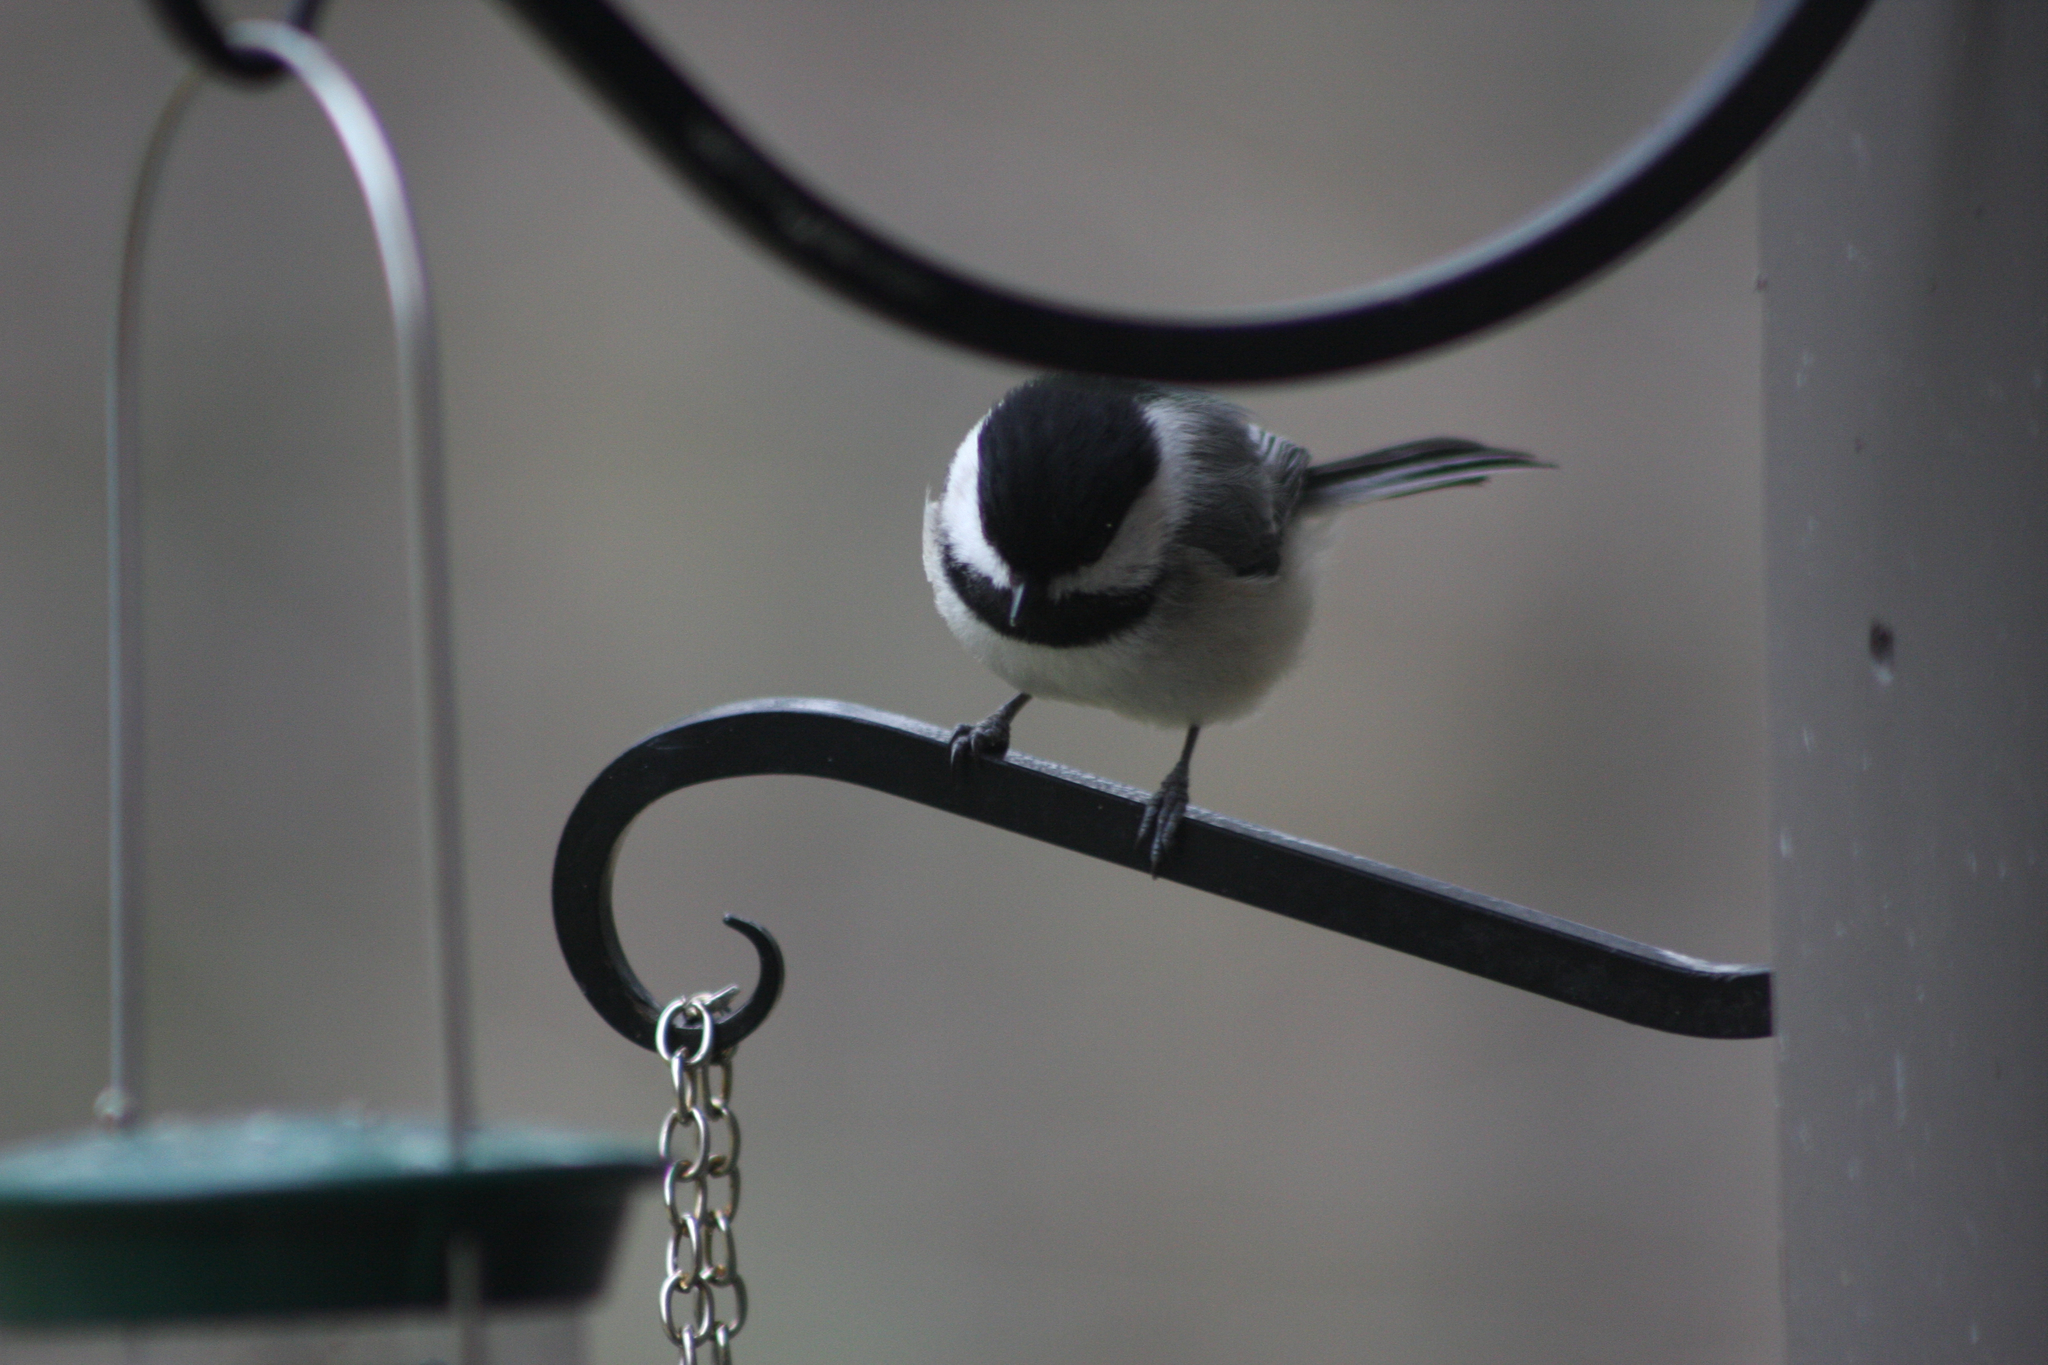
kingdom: Animalia
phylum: Chordata
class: Aves
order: Passeriformes
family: Paridae
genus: Poecile
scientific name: Poecile atricapillus
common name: Black-capped chickadee
